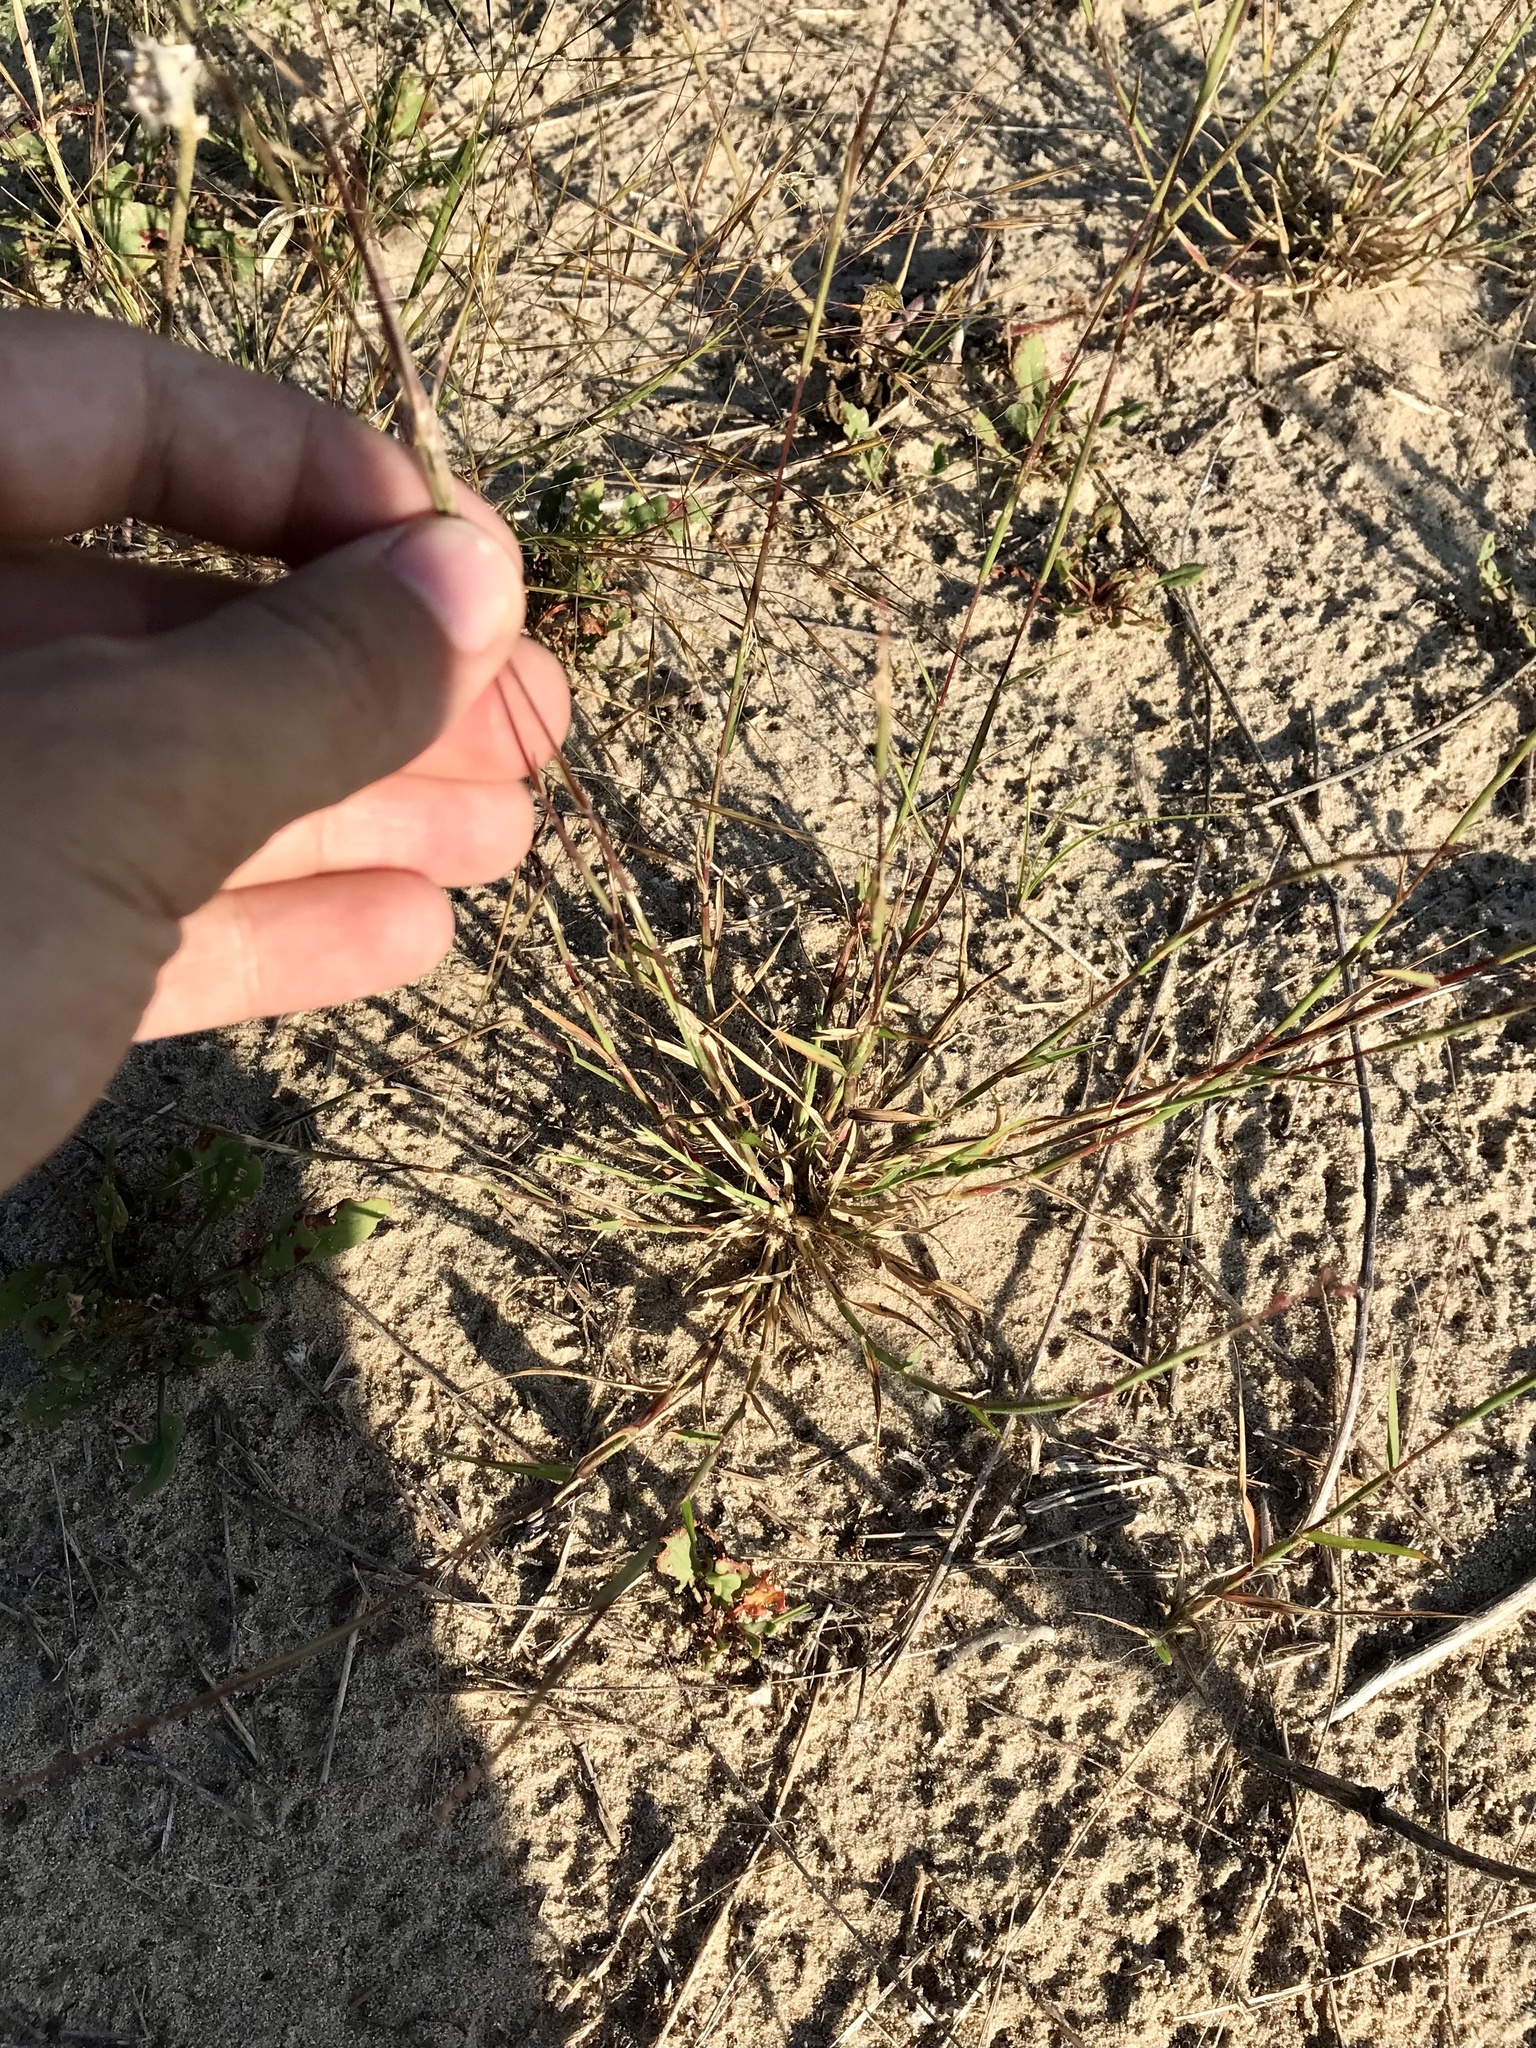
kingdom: Plantae
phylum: Tracheophyta
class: Liliopsida
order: Poales
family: Poaceae
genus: Triplasis
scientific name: Triplasis purpurea
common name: Purple sand grass
